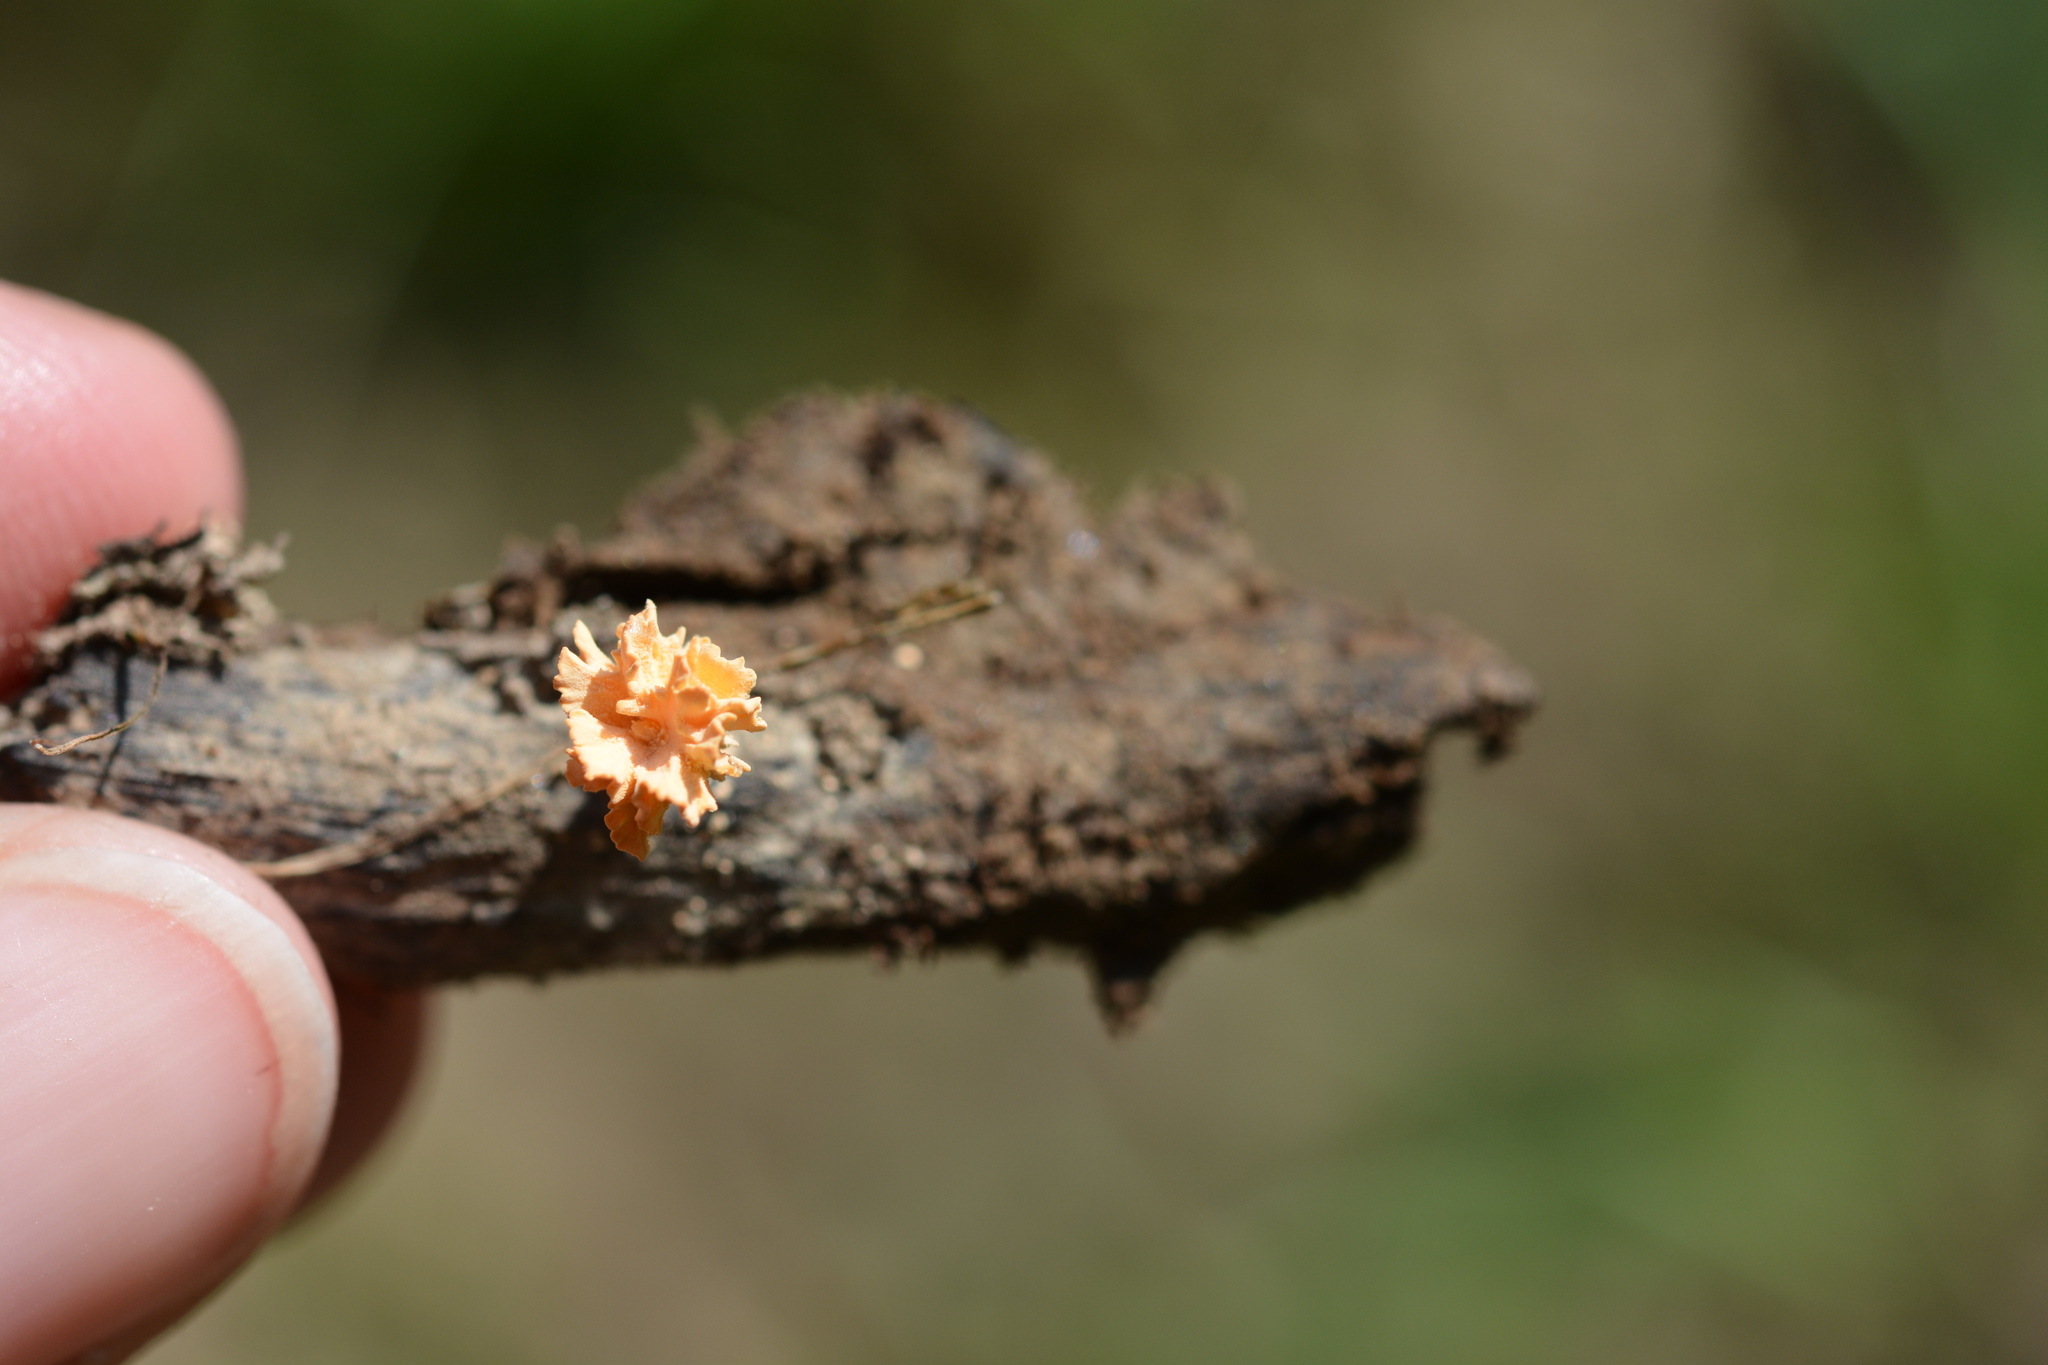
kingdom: Fungi
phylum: Ascomycota
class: Sordariomycetes
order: Xylariales
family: Xylariaceae
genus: Xylaria
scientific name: Xylaria cubensis
